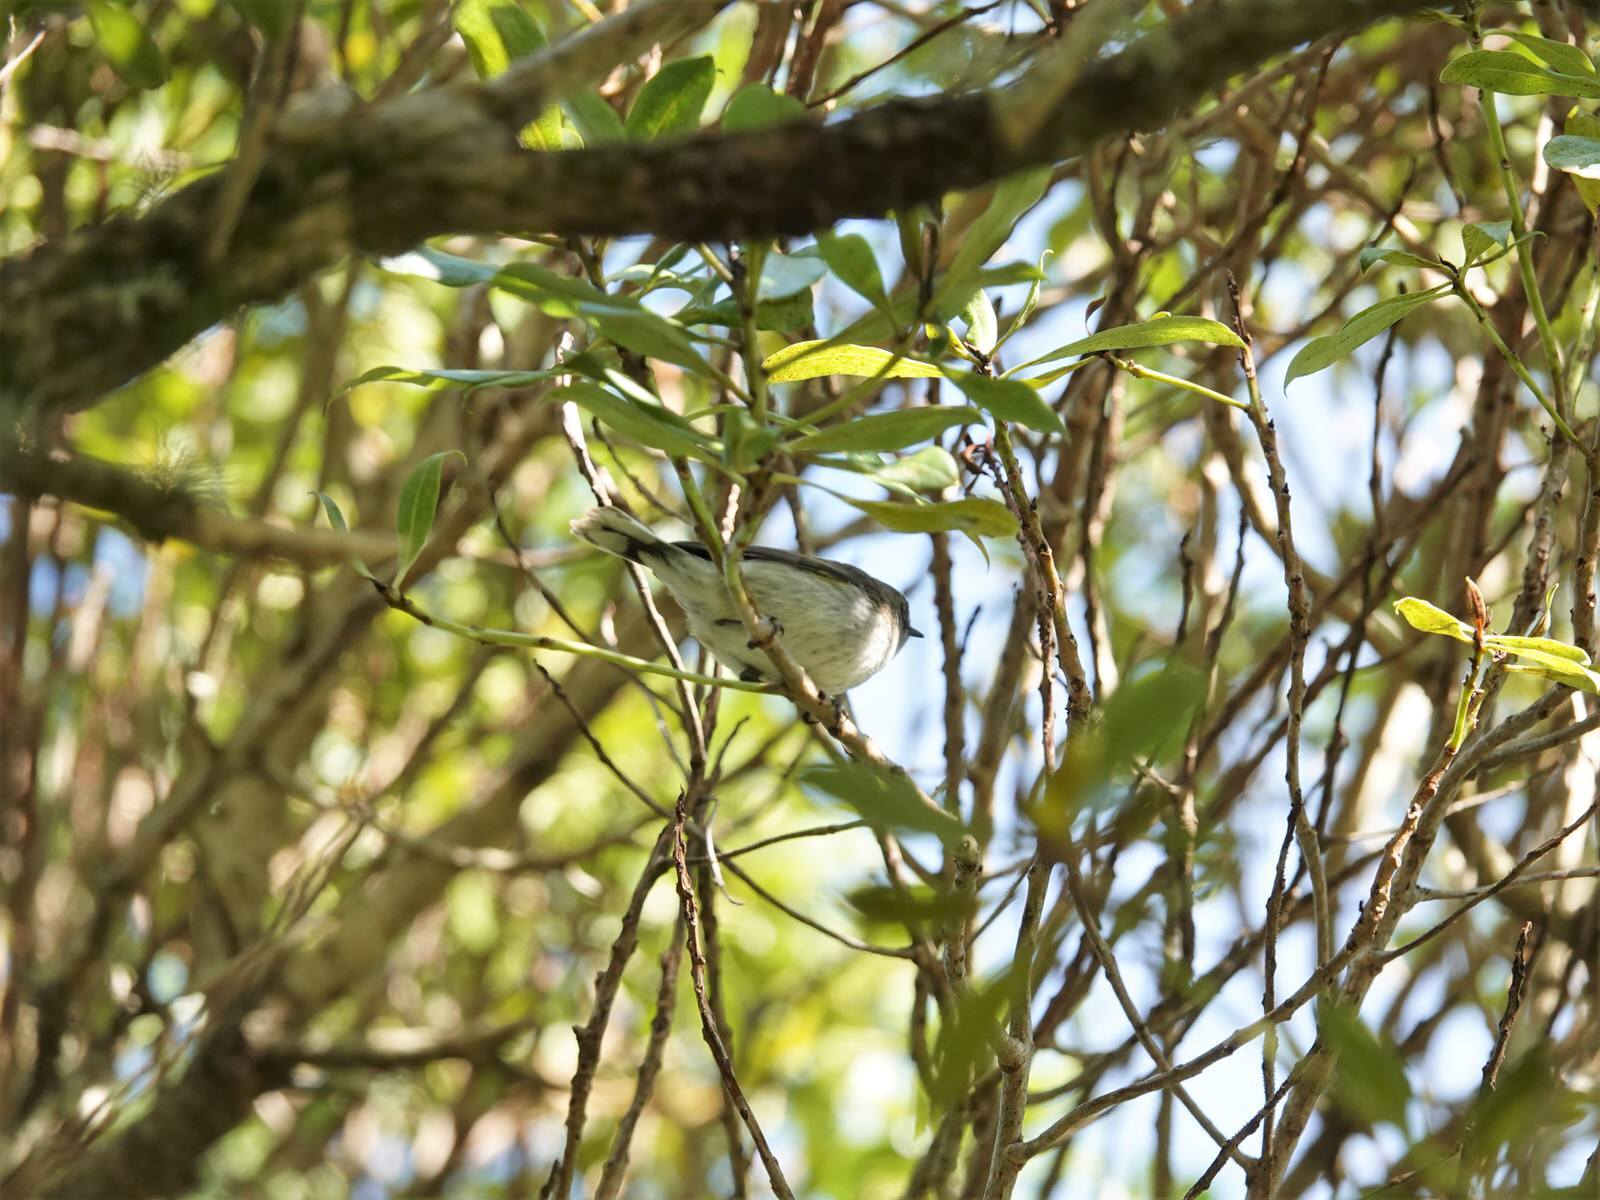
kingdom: Animalia
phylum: Chordata
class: Aves
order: Passeriformes
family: Acanthizidae
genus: Gerygone
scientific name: Gerygone igata
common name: Grey gerygone
